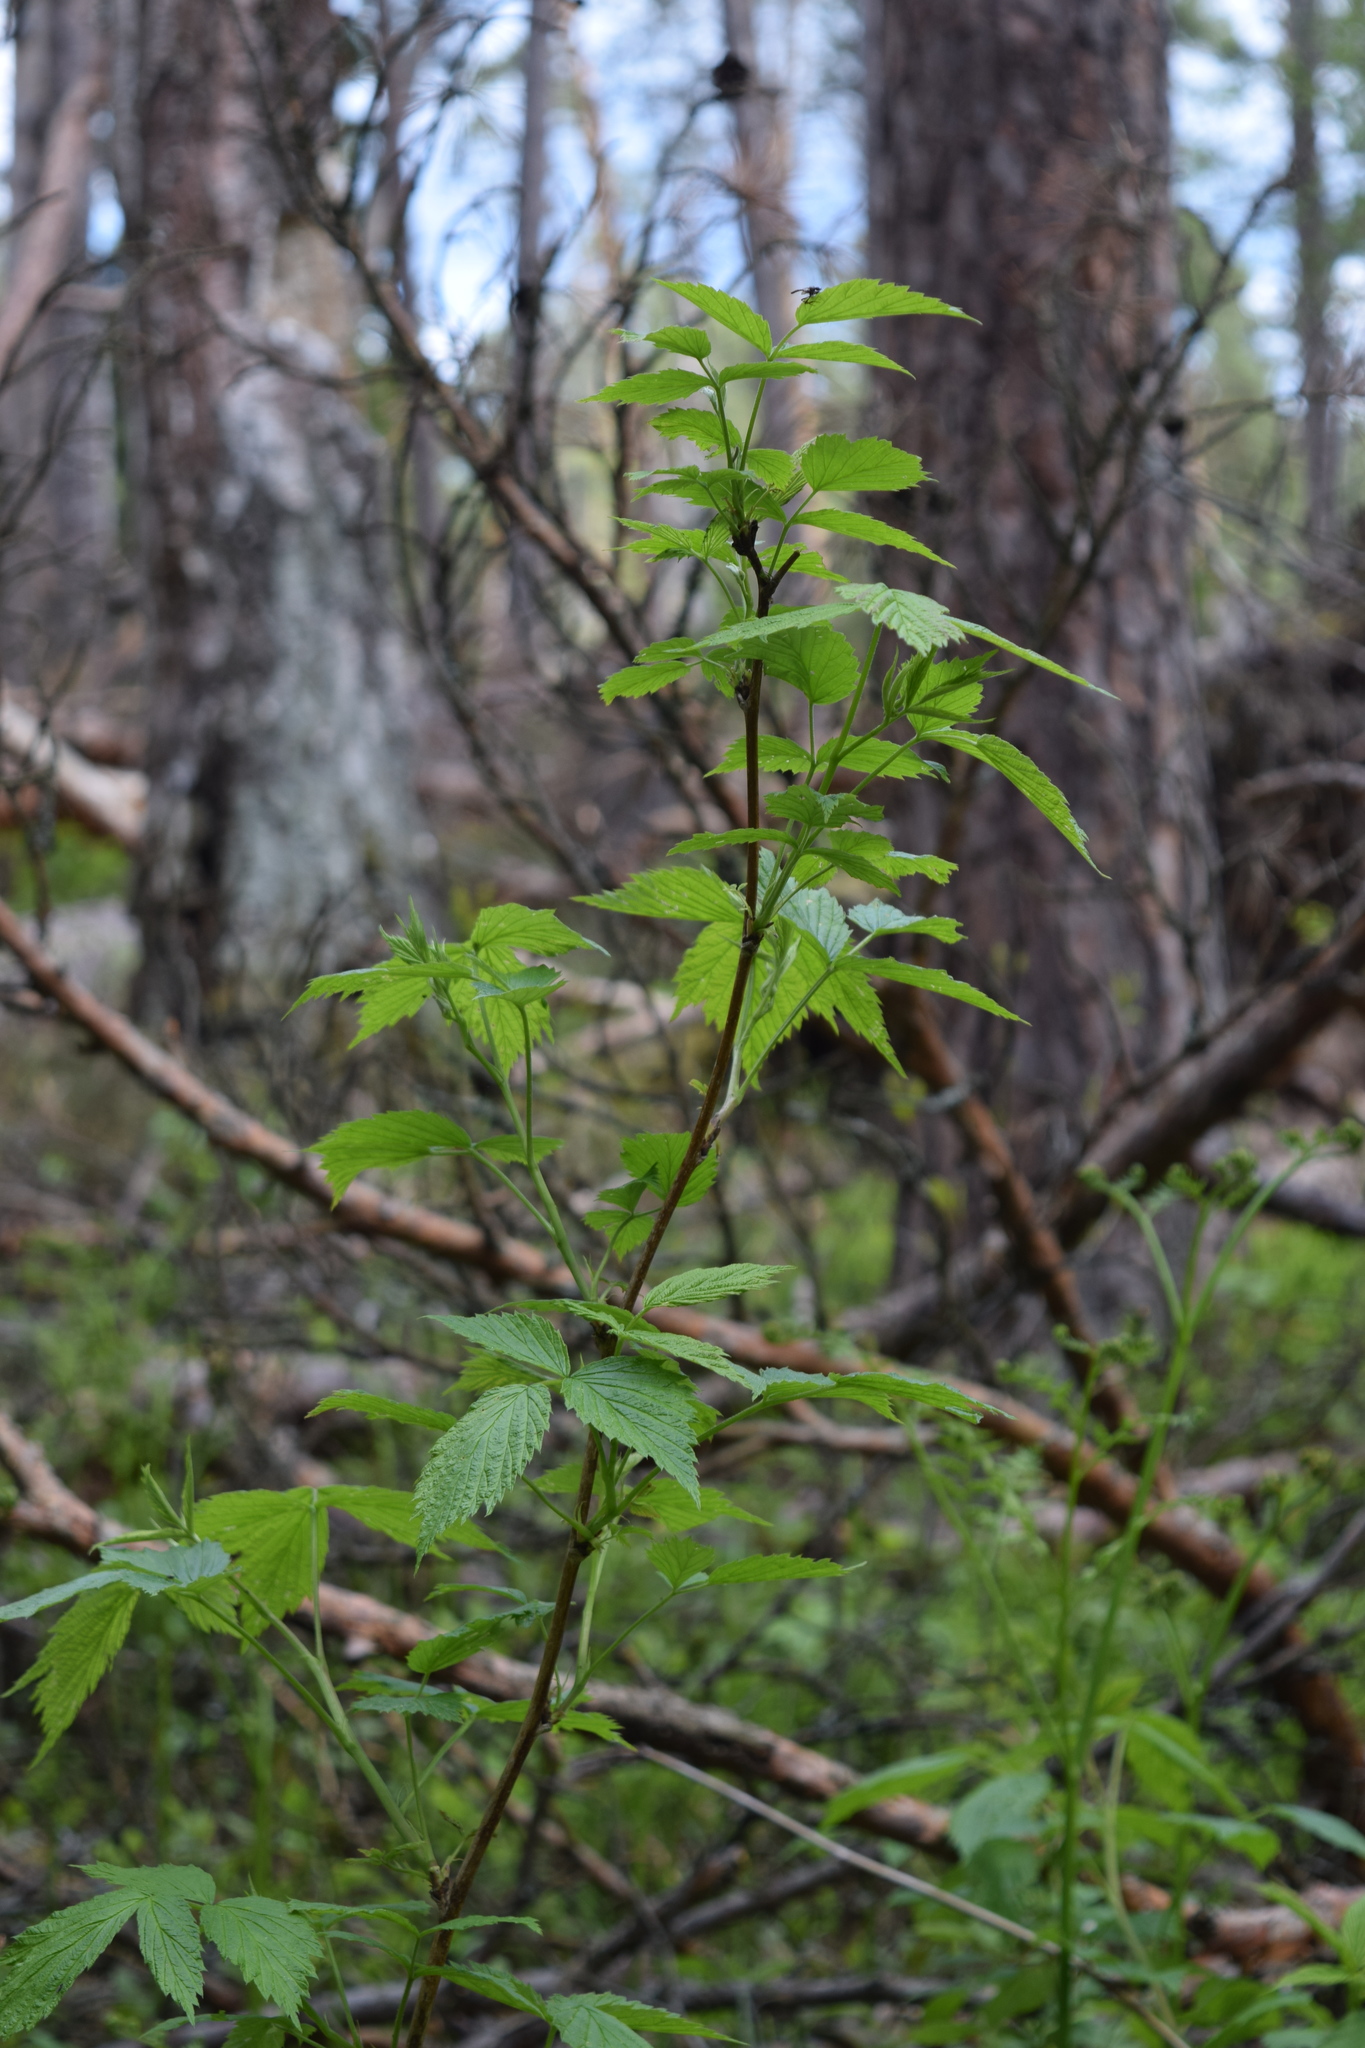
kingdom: Plantae
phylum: Tracheophyta
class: Magnoliopsida
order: Rosales
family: Rosaceae
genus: Rubus
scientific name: Rubus idaeus
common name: Raspberry
